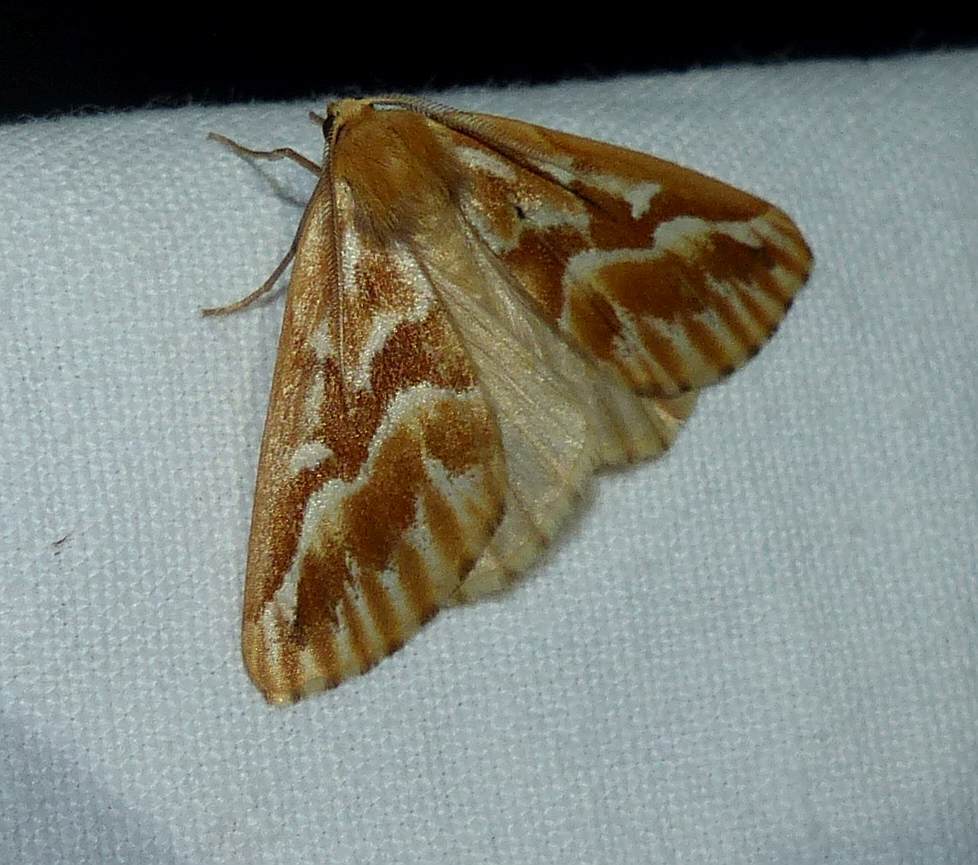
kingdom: Animalia
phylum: Arthropoda
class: Insecta
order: Lepidoptera
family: Geometridae
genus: Caripeta
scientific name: Caripeta piniata
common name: Northern pine looper moth
